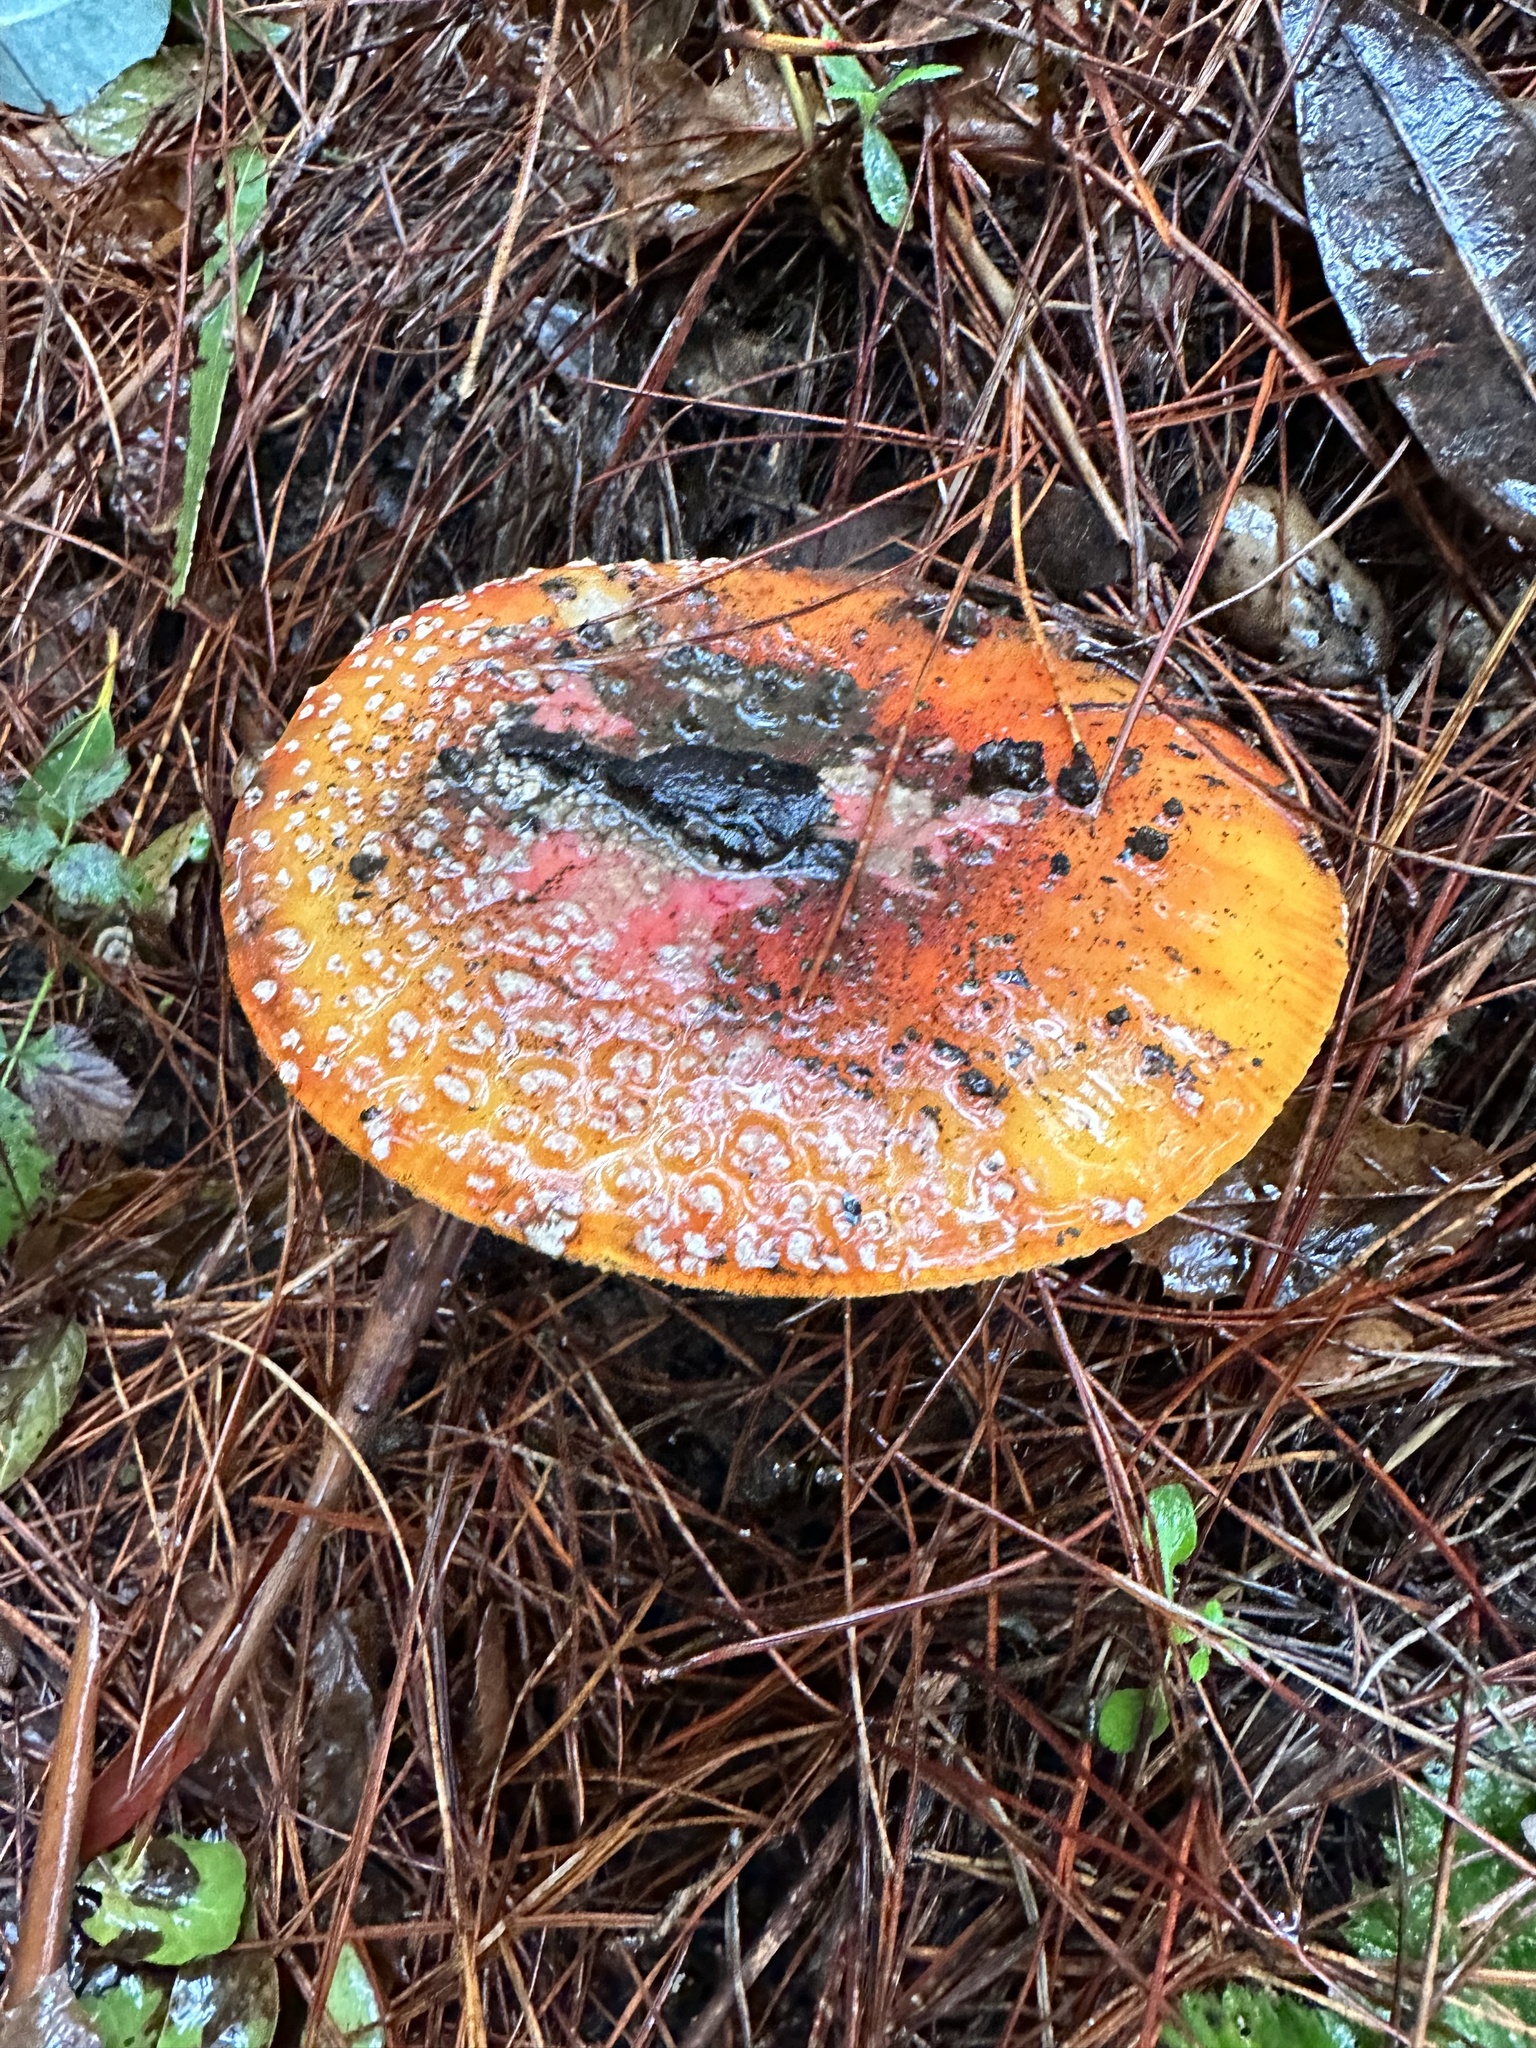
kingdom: Fungi
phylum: Basidiomycota
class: Agaricomycetes
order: Agaricales
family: Amanitaceae
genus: Amanita
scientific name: Amanita muscaria
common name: Fly agaric
